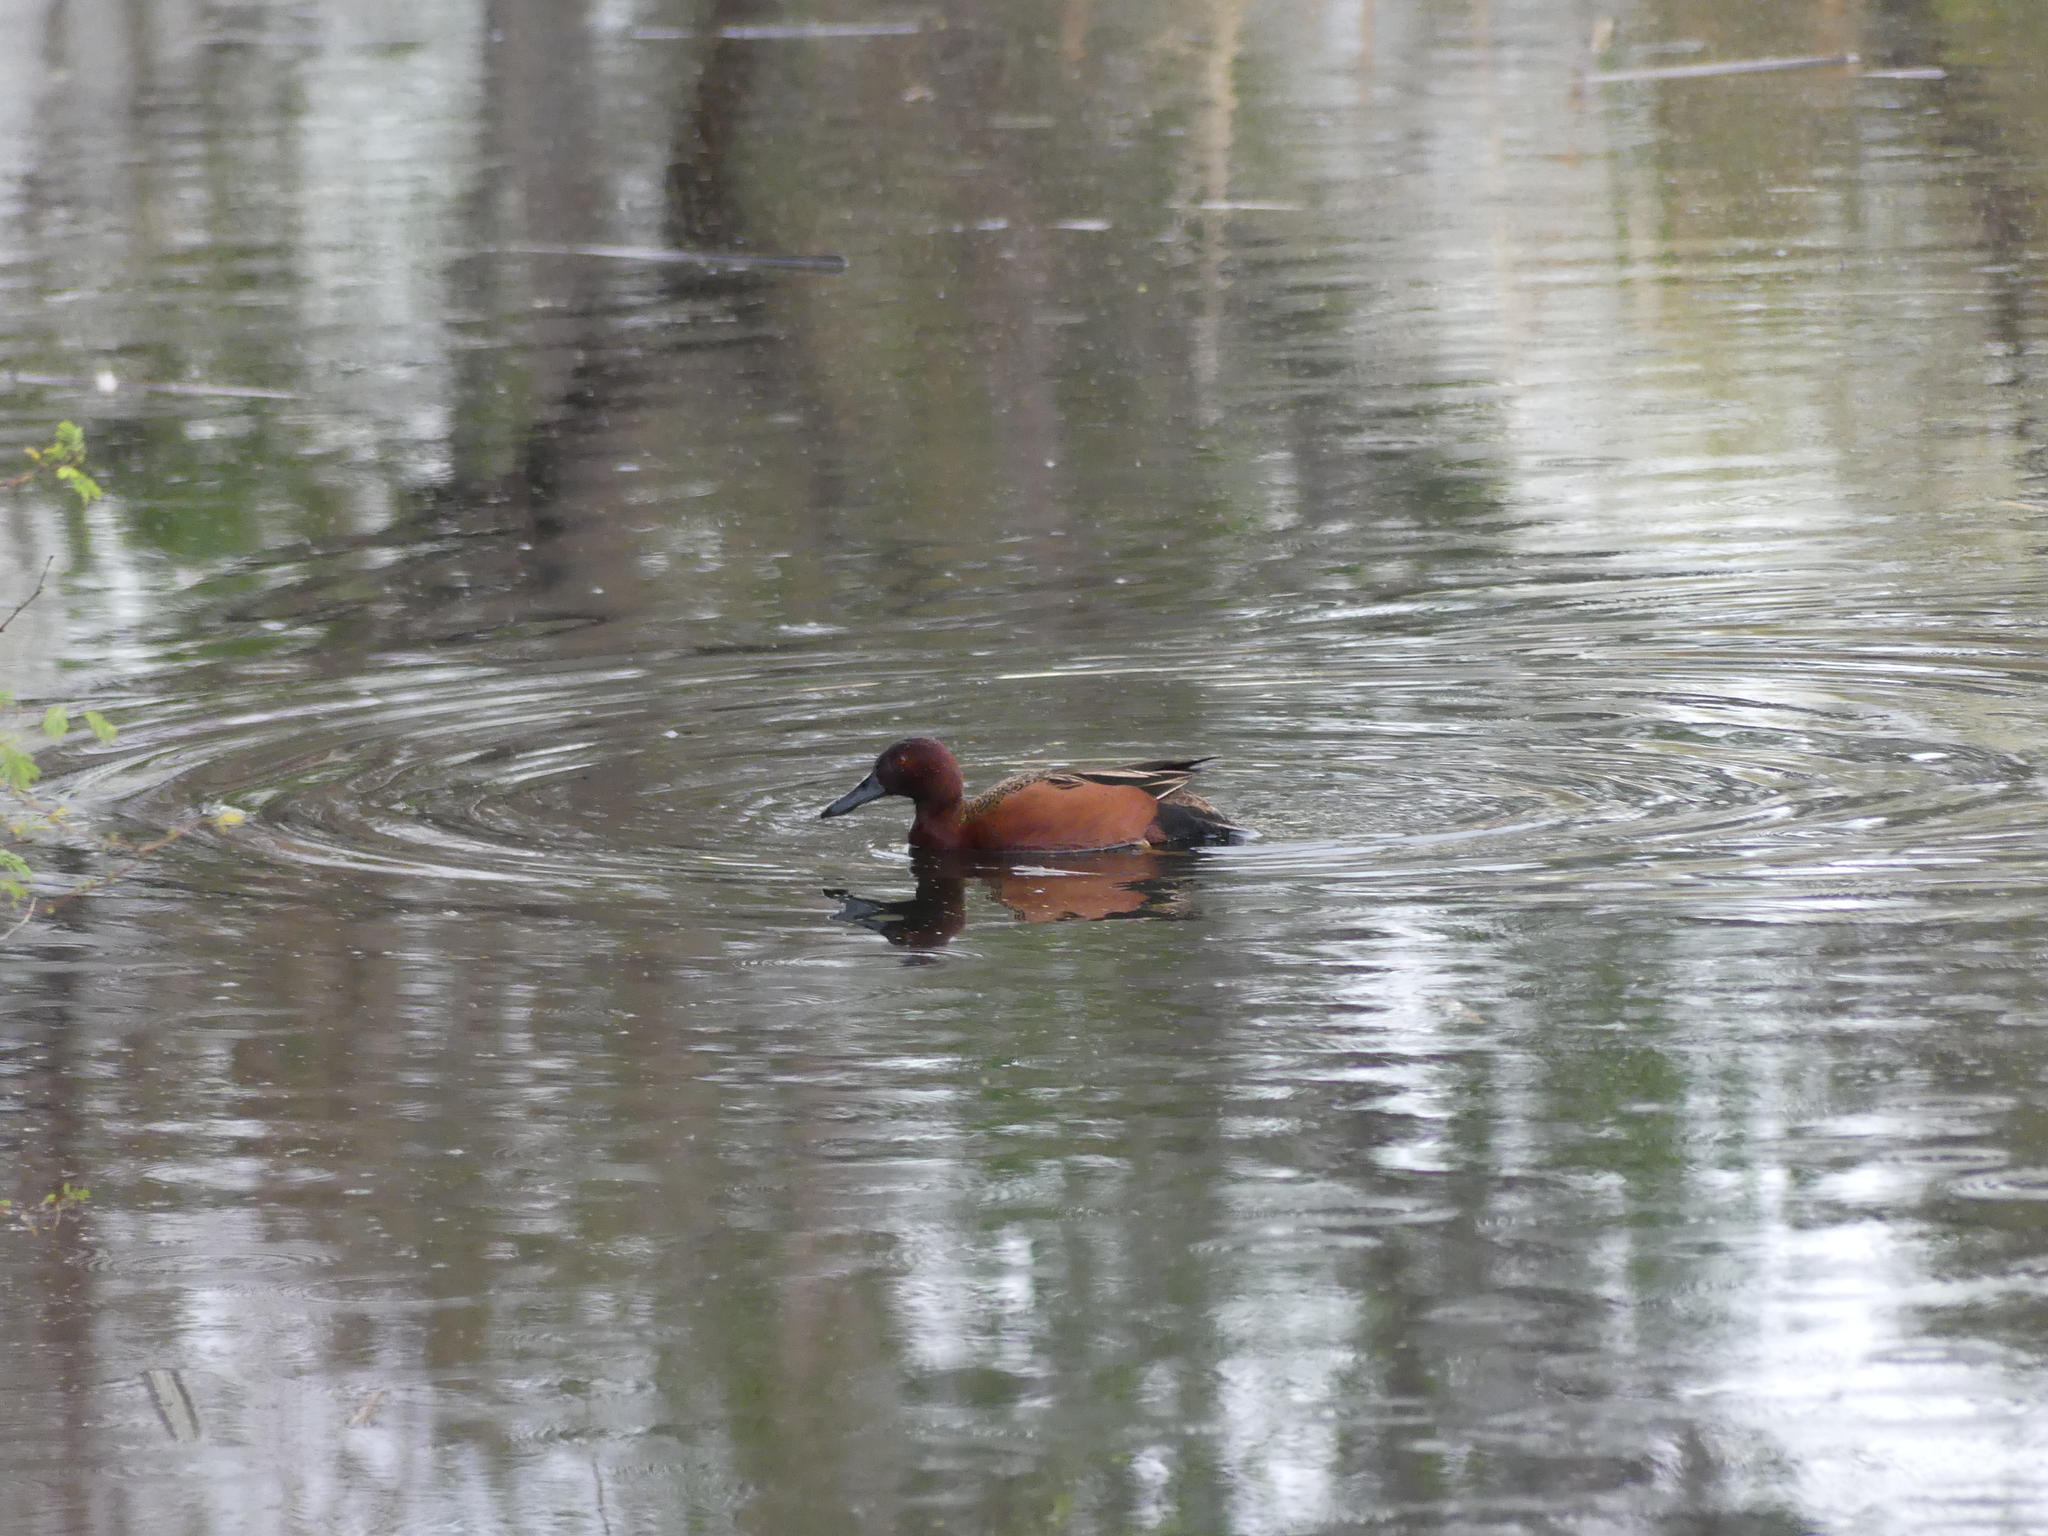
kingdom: Animalia
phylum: Chordata
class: Aves
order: Anseriformes
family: Anatidae
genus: Spatula
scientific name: Spatula cyanoptera
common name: Cinnamon teal
